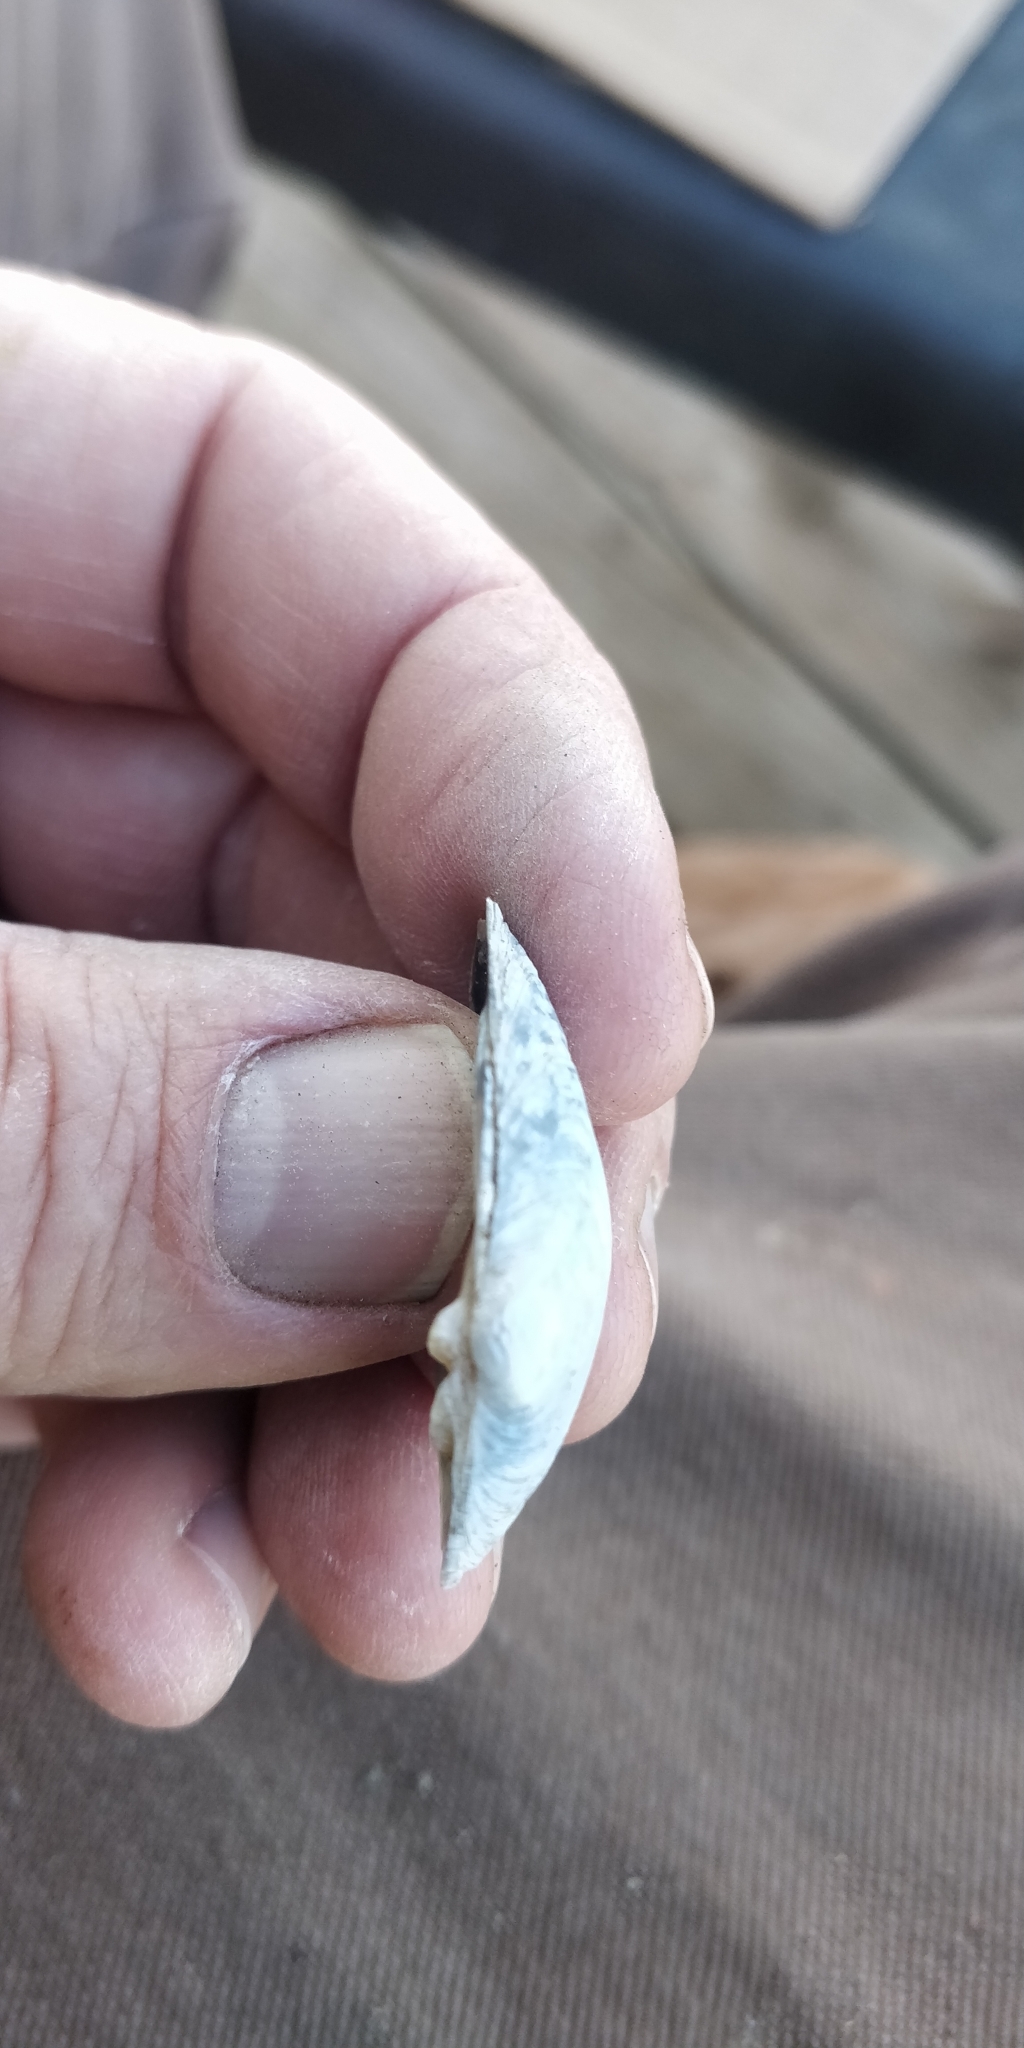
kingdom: Animalia
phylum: Mollusca
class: Bivalvia
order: Unionida
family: Unionidae
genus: Truncilla
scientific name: Truncilla donaciformis
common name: Fawnsfoot
